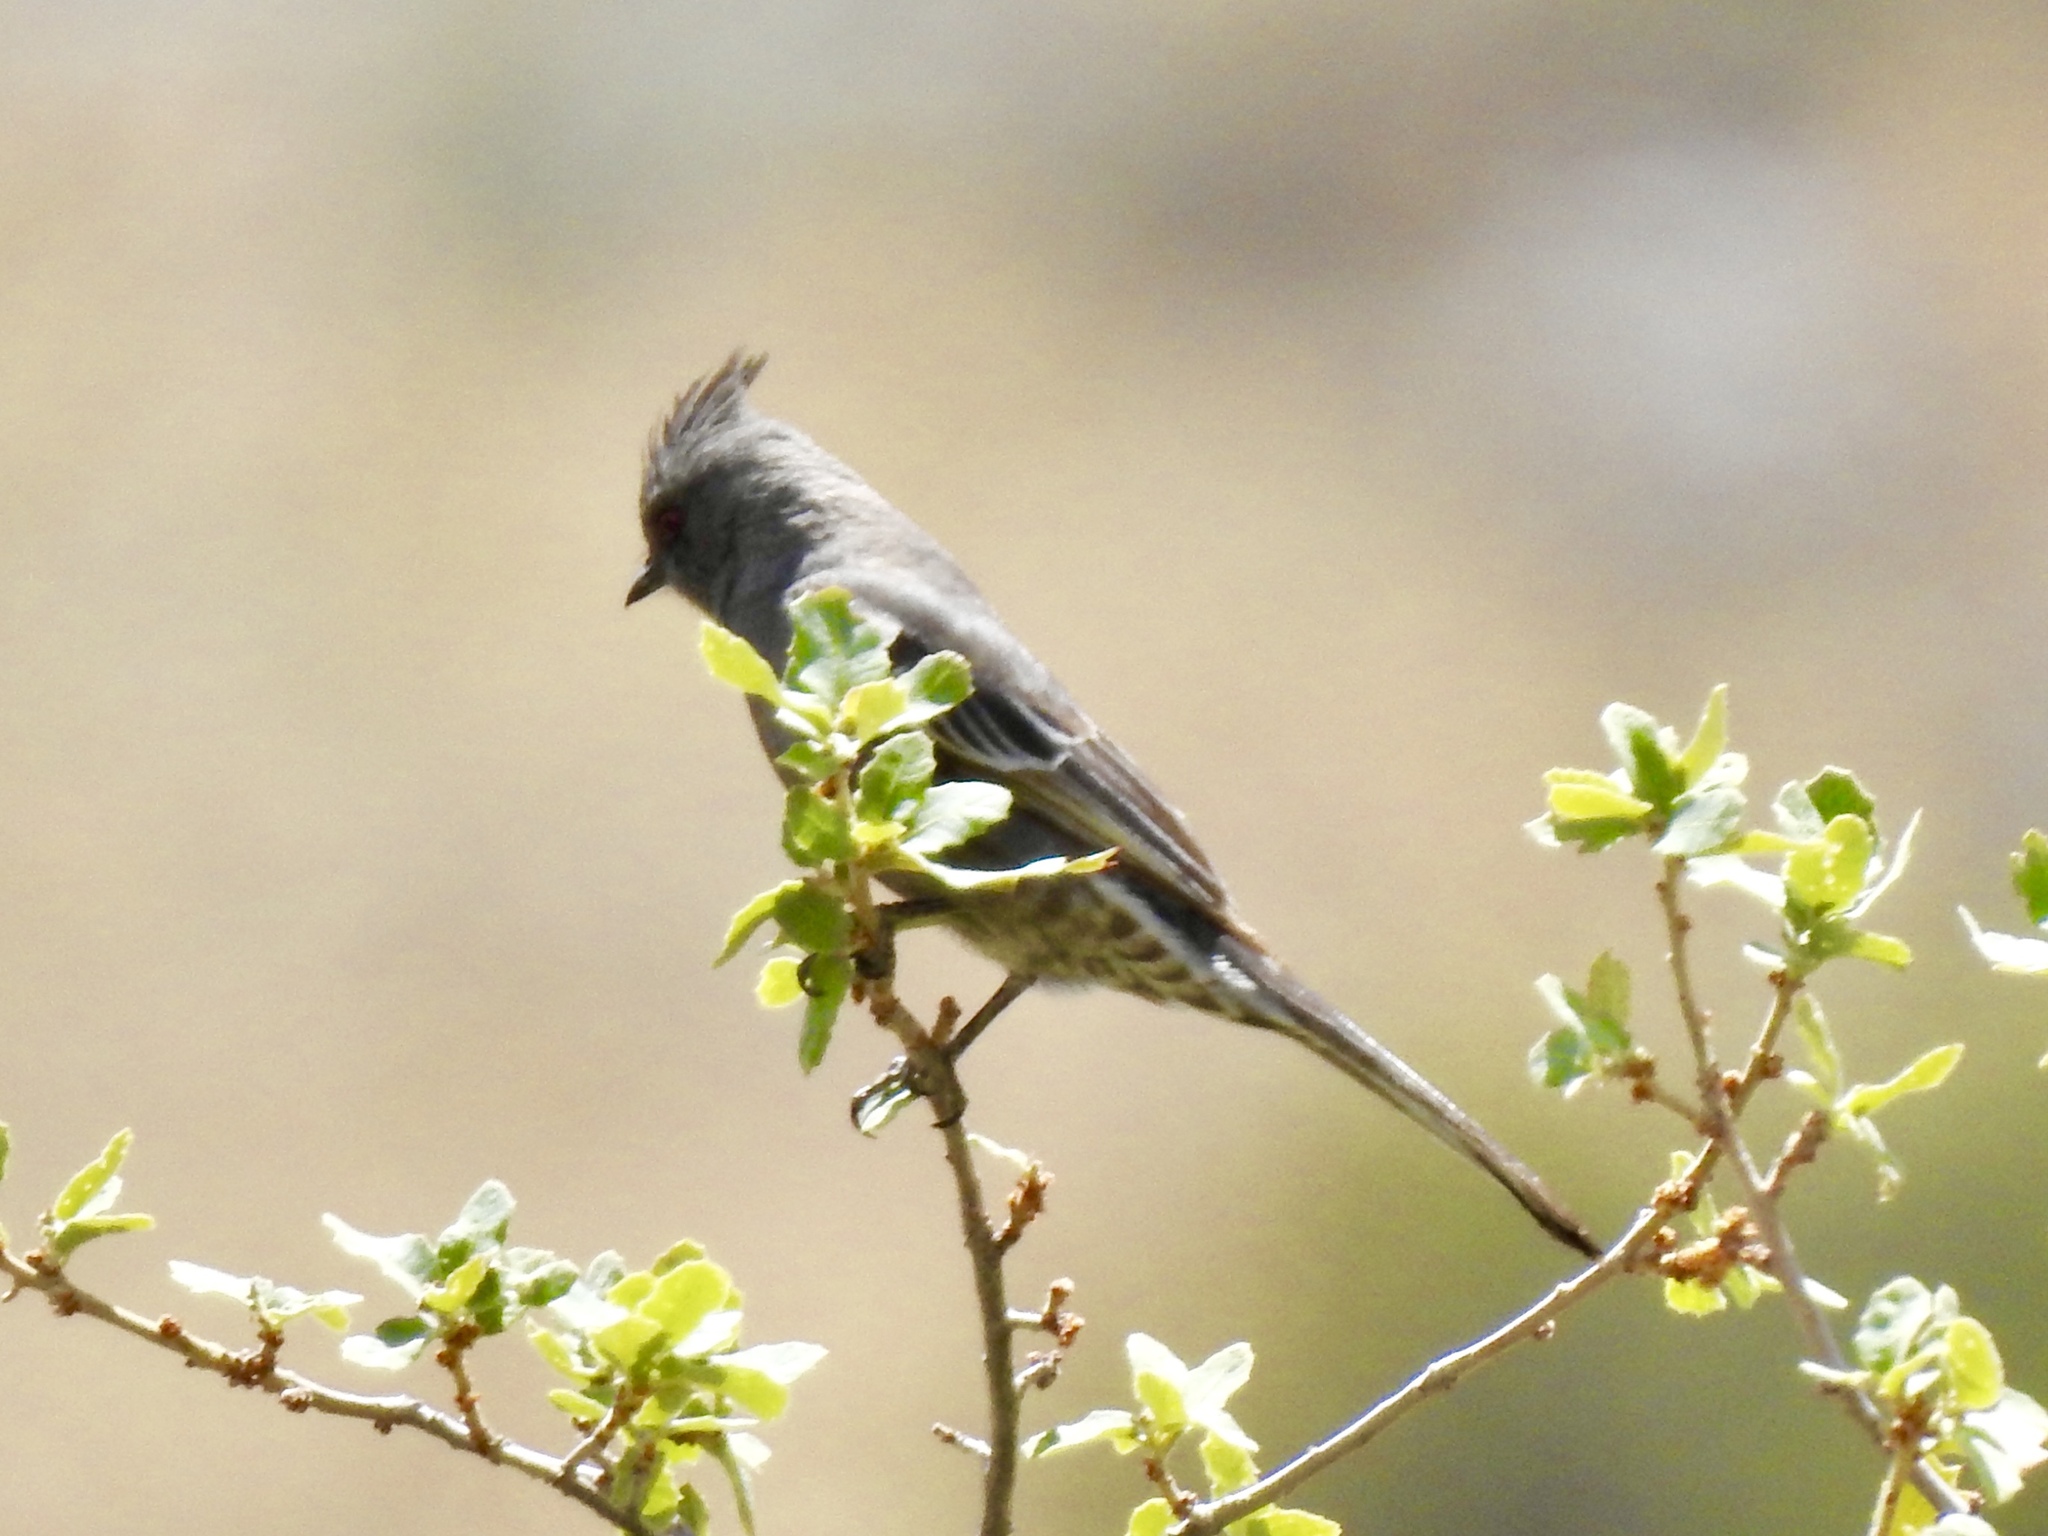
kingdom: Animalia
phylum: Chordata
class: Aves
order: Passeriformes
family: Ptilogonatidae
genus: Phainopepla
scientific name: Phainopepla nitens
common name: Phainopepla
